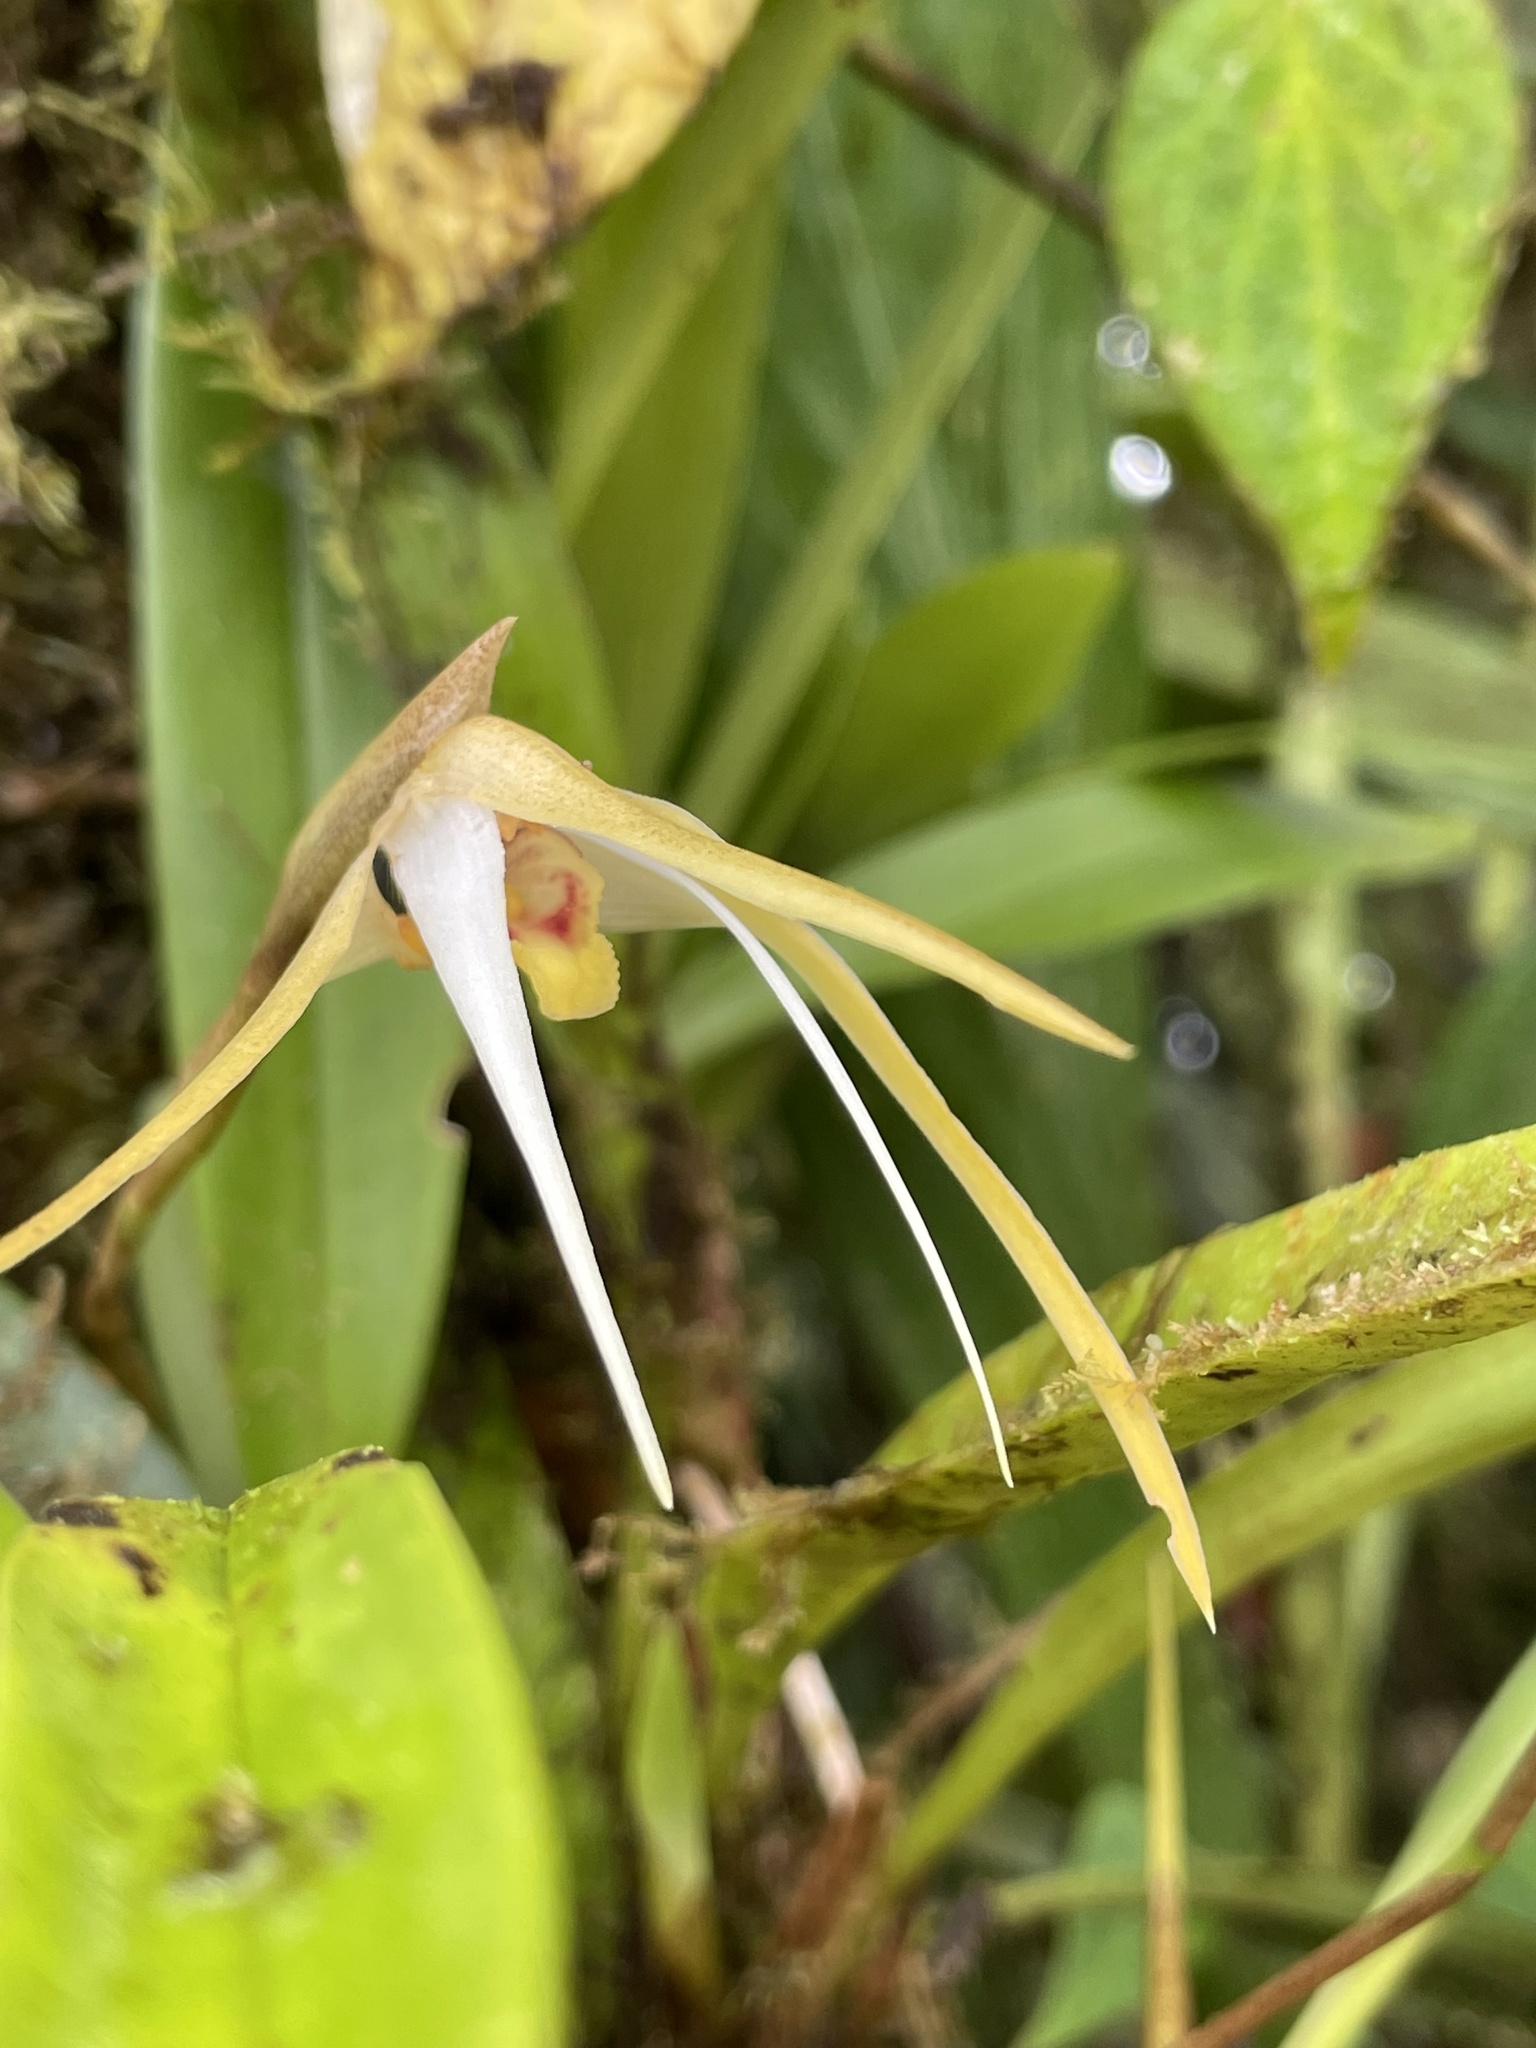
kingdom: Plantae
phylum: Tracheophyta
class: Liliopsida
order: Asparagales
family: Orchidaceae
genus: Maxillaria
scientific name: Maxillaria bradei
